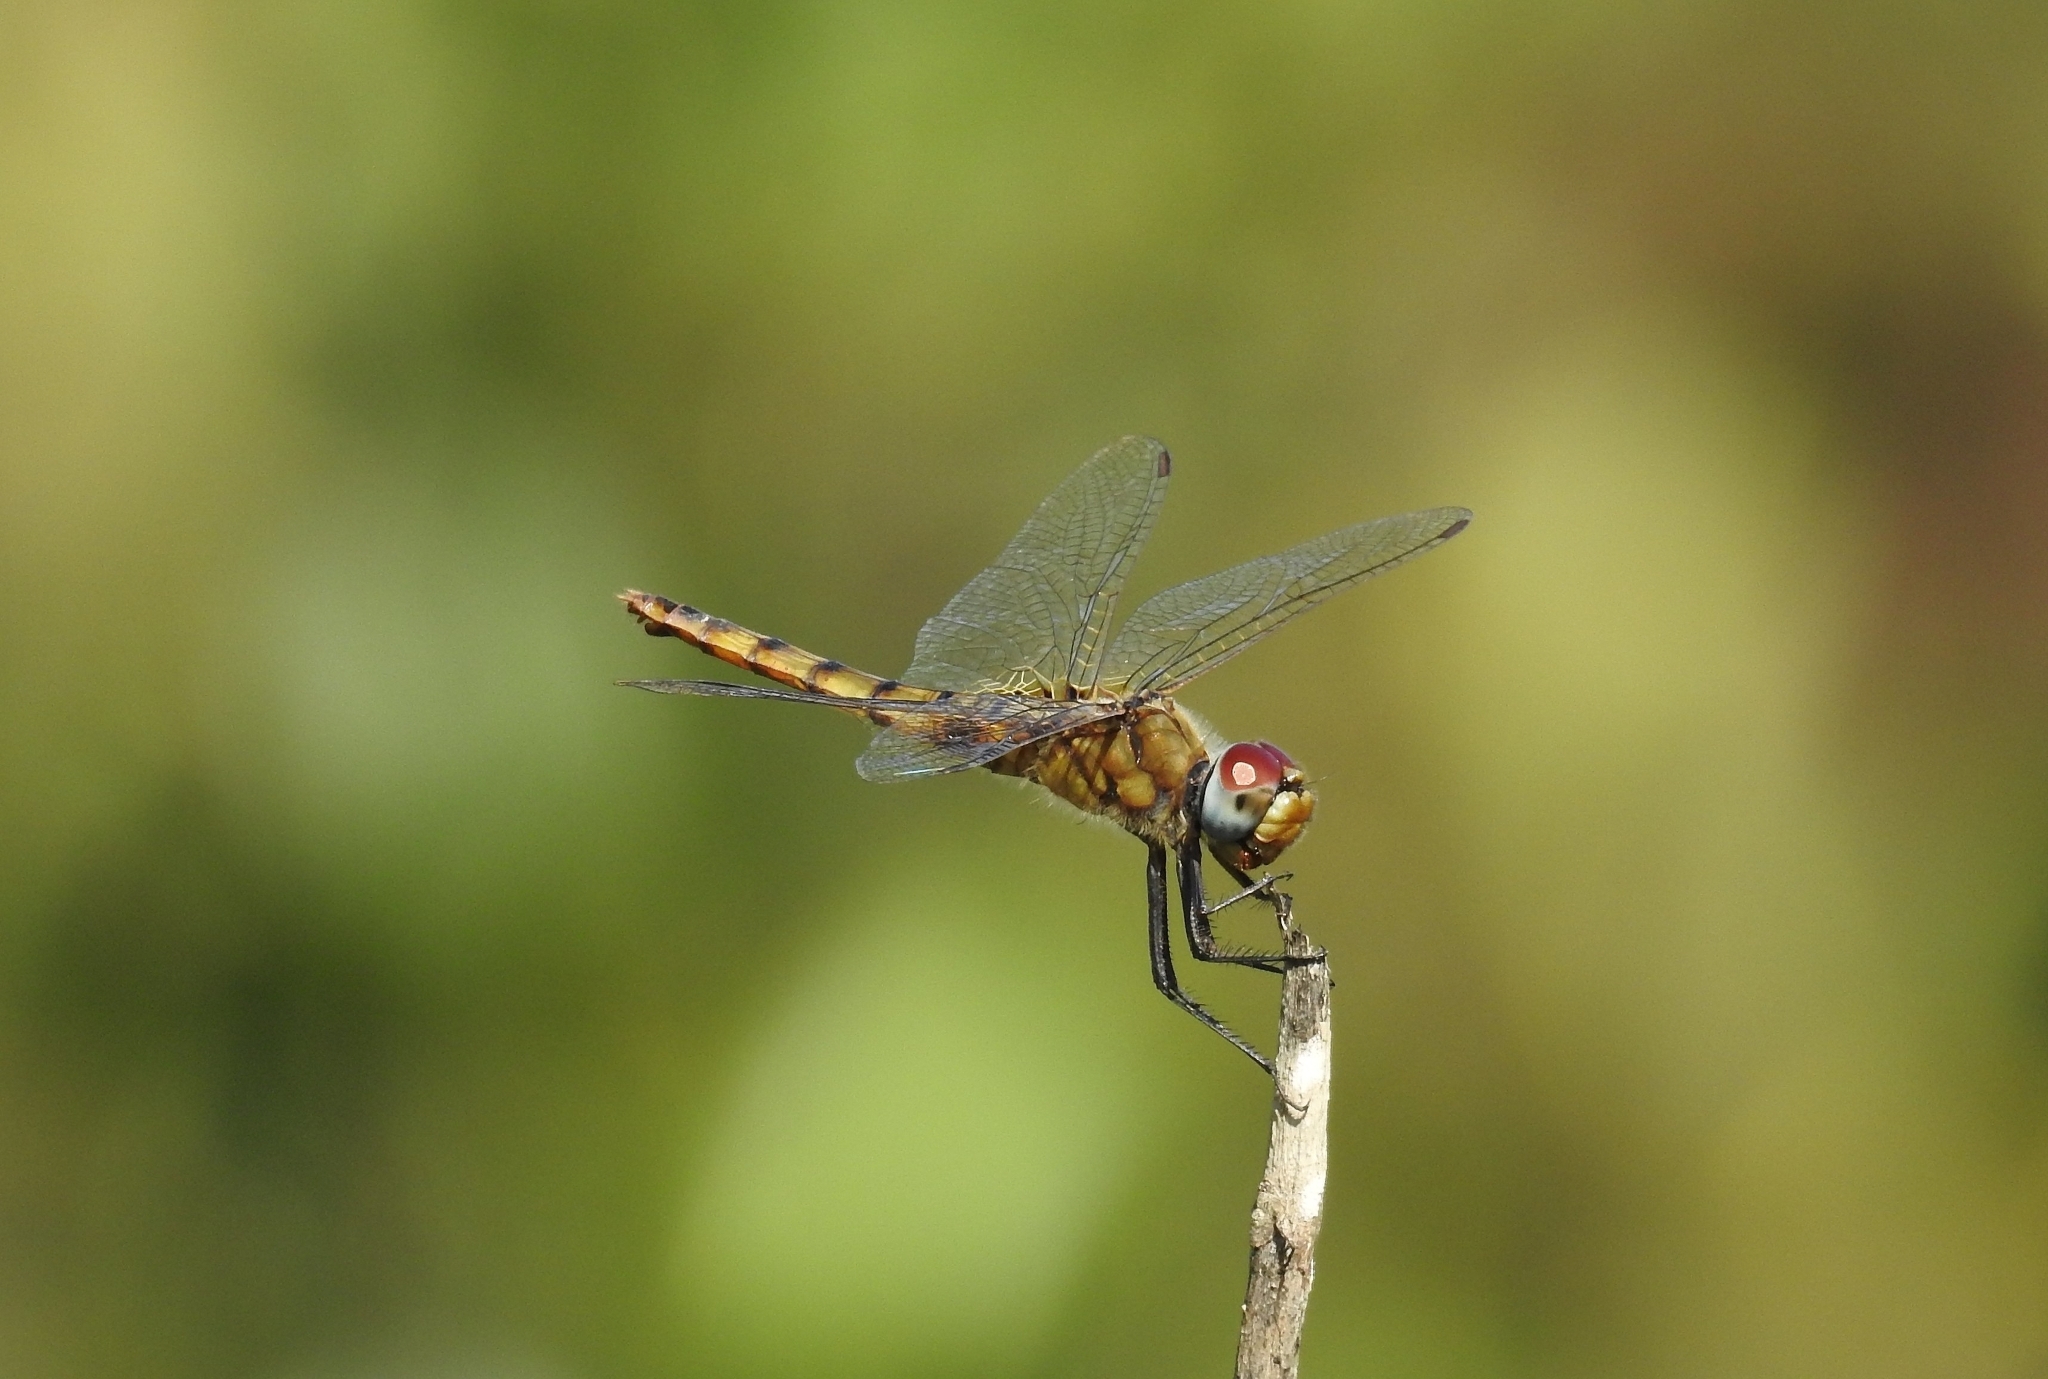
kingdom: Animalia
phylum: Arthropoda
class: Insecta
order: Odonata
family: Libellulidae
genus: Urothemis
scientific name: Urothemis signata
